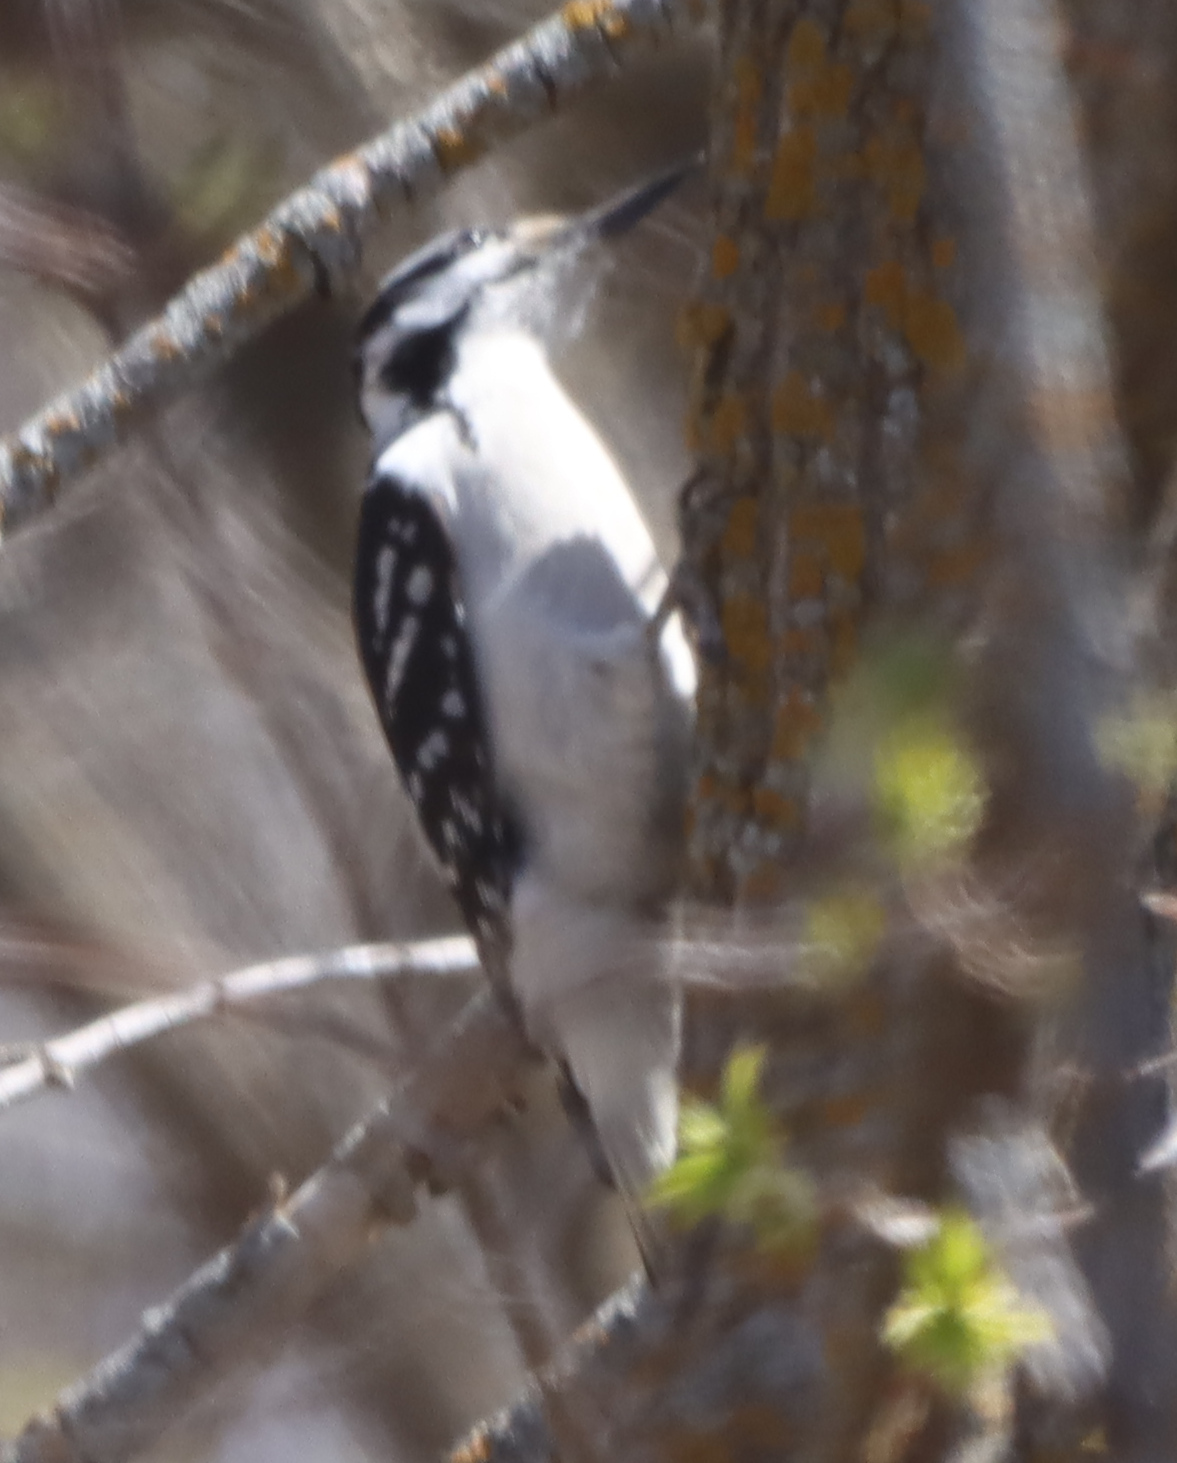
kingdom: Animalia
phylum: Chordata
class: Aves
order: Piciformes
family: Picidae
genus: Leuconotopicus
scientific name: Leuconotopicus villosus
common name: Hairy woodpecker
